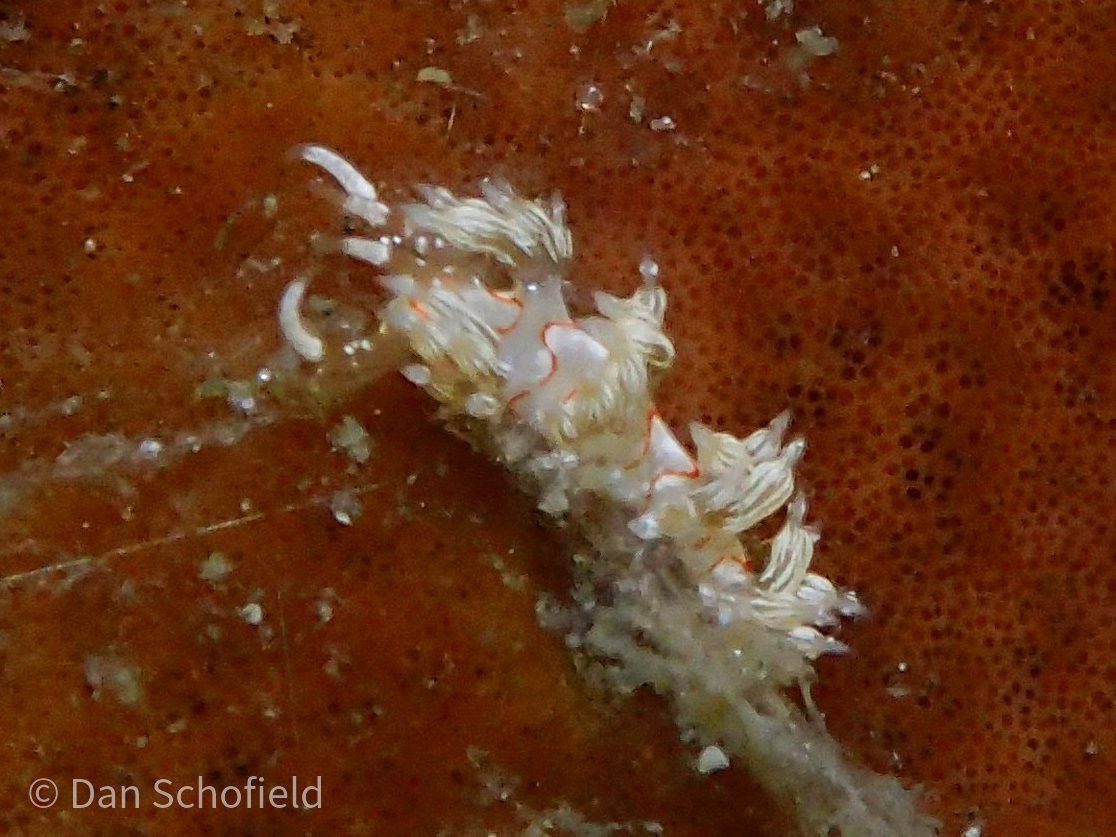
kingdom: Animalia
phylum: Mollusca
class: Gastropoda
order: Nudibranchia
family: Facelinidae
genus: Cratena
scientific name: Cratena simba
